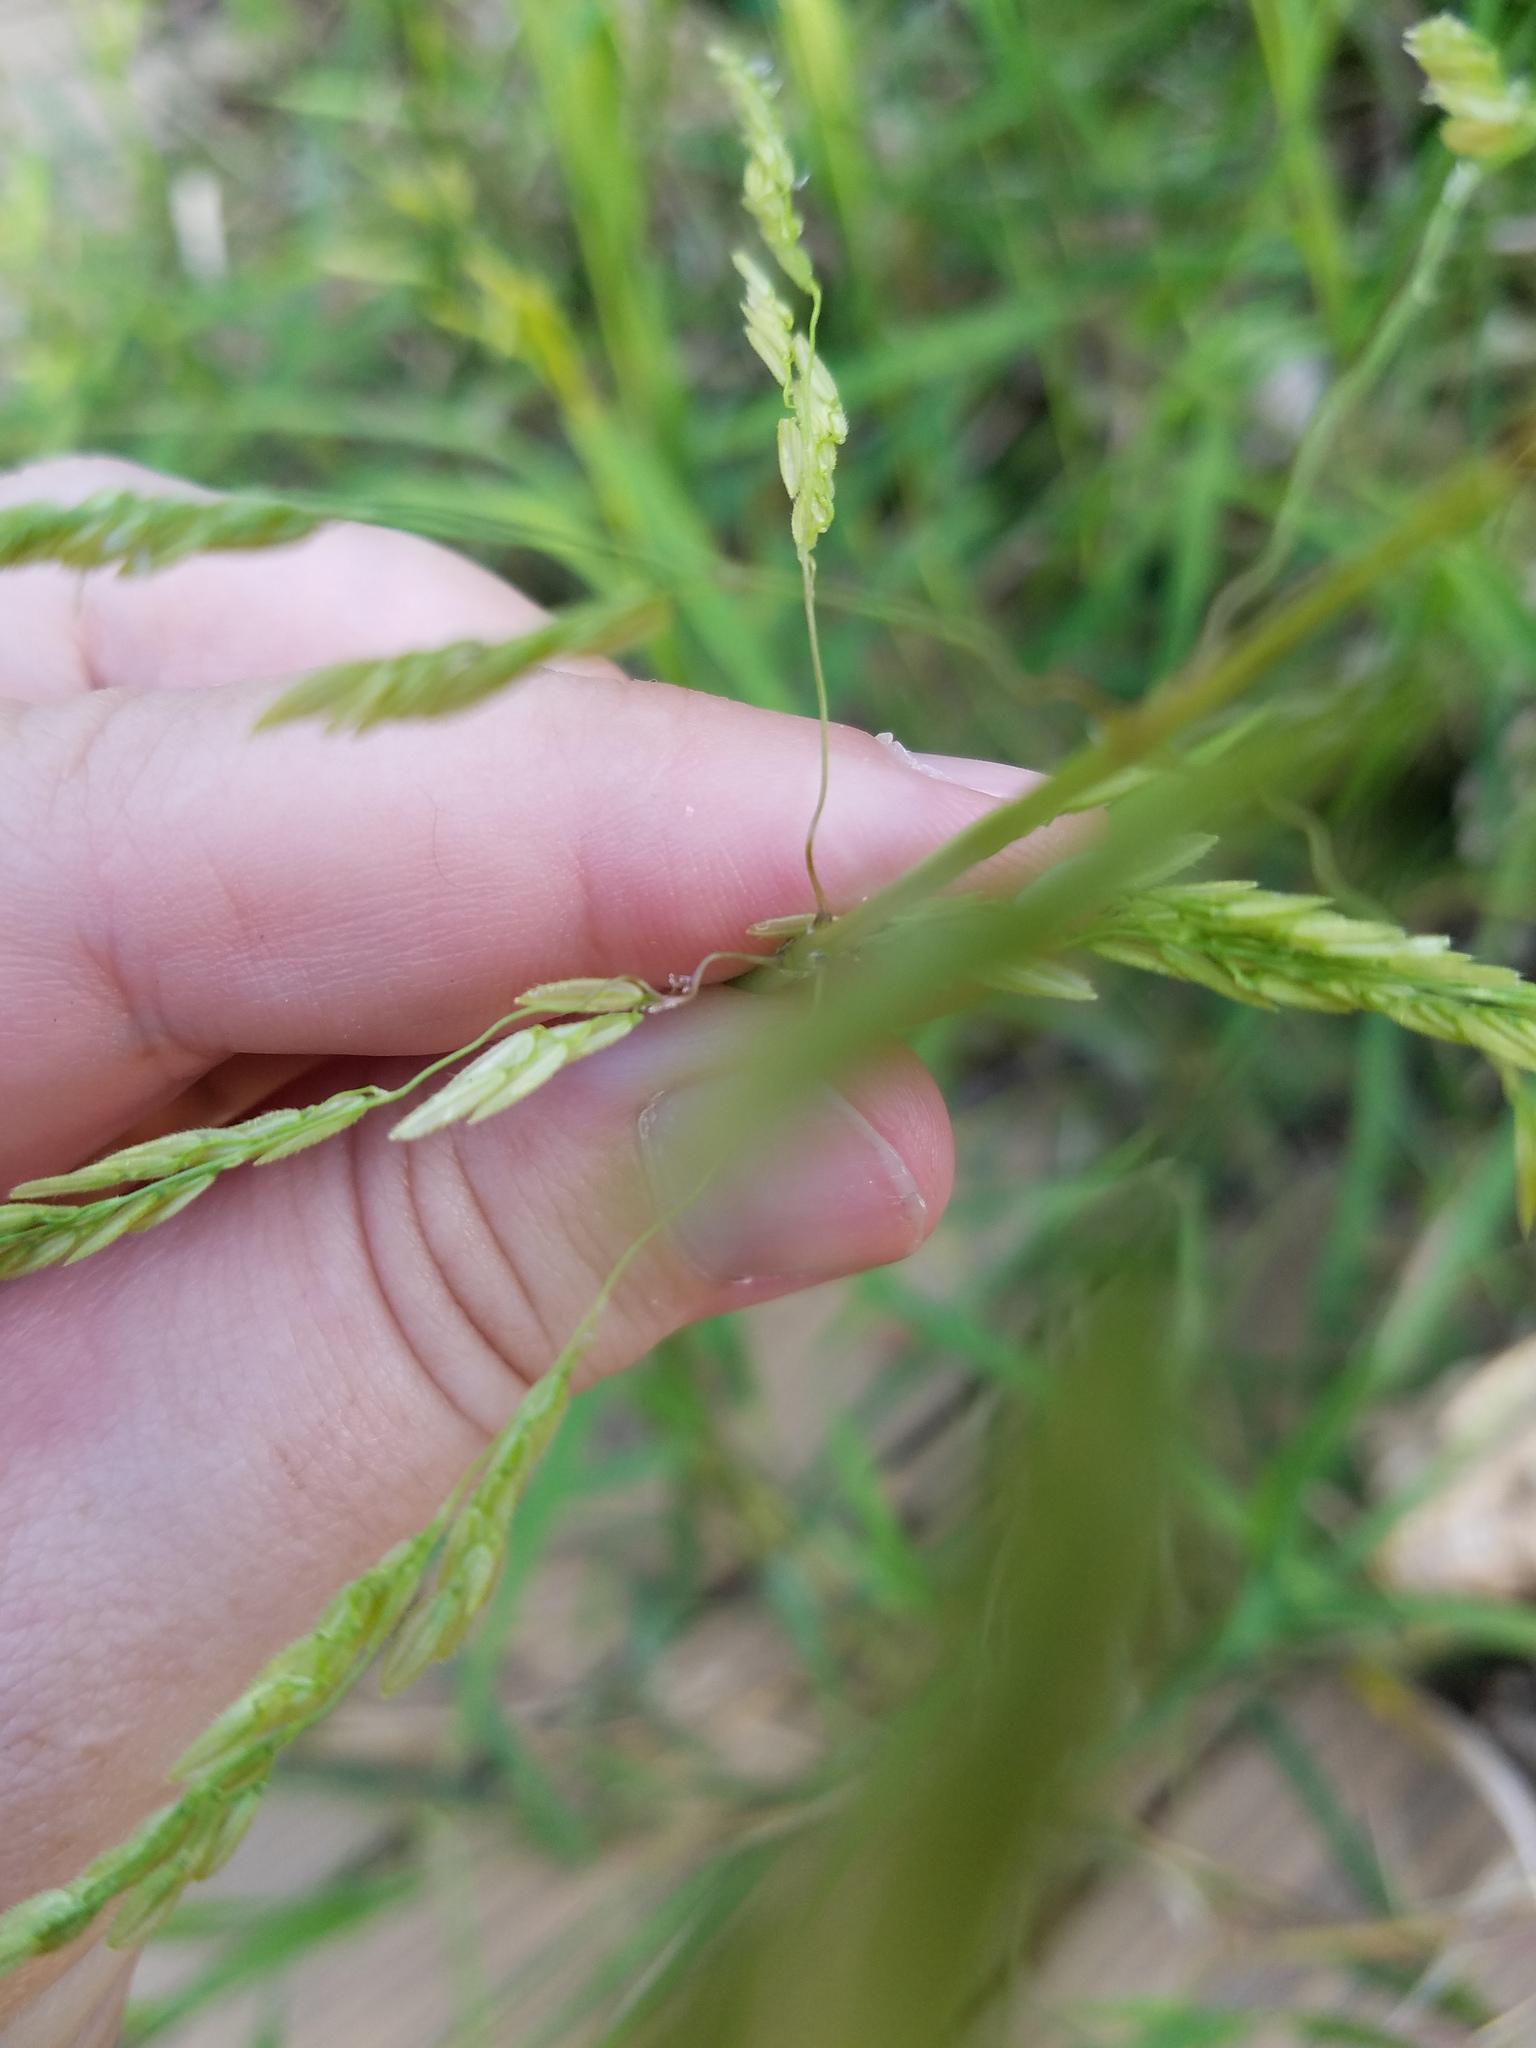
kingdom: Plantae
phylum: Tracheophyta
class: Liliopsida
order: Poales
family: Poaceae
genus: Leersia
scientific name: Leersia oryzoides
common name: Cut-grass
